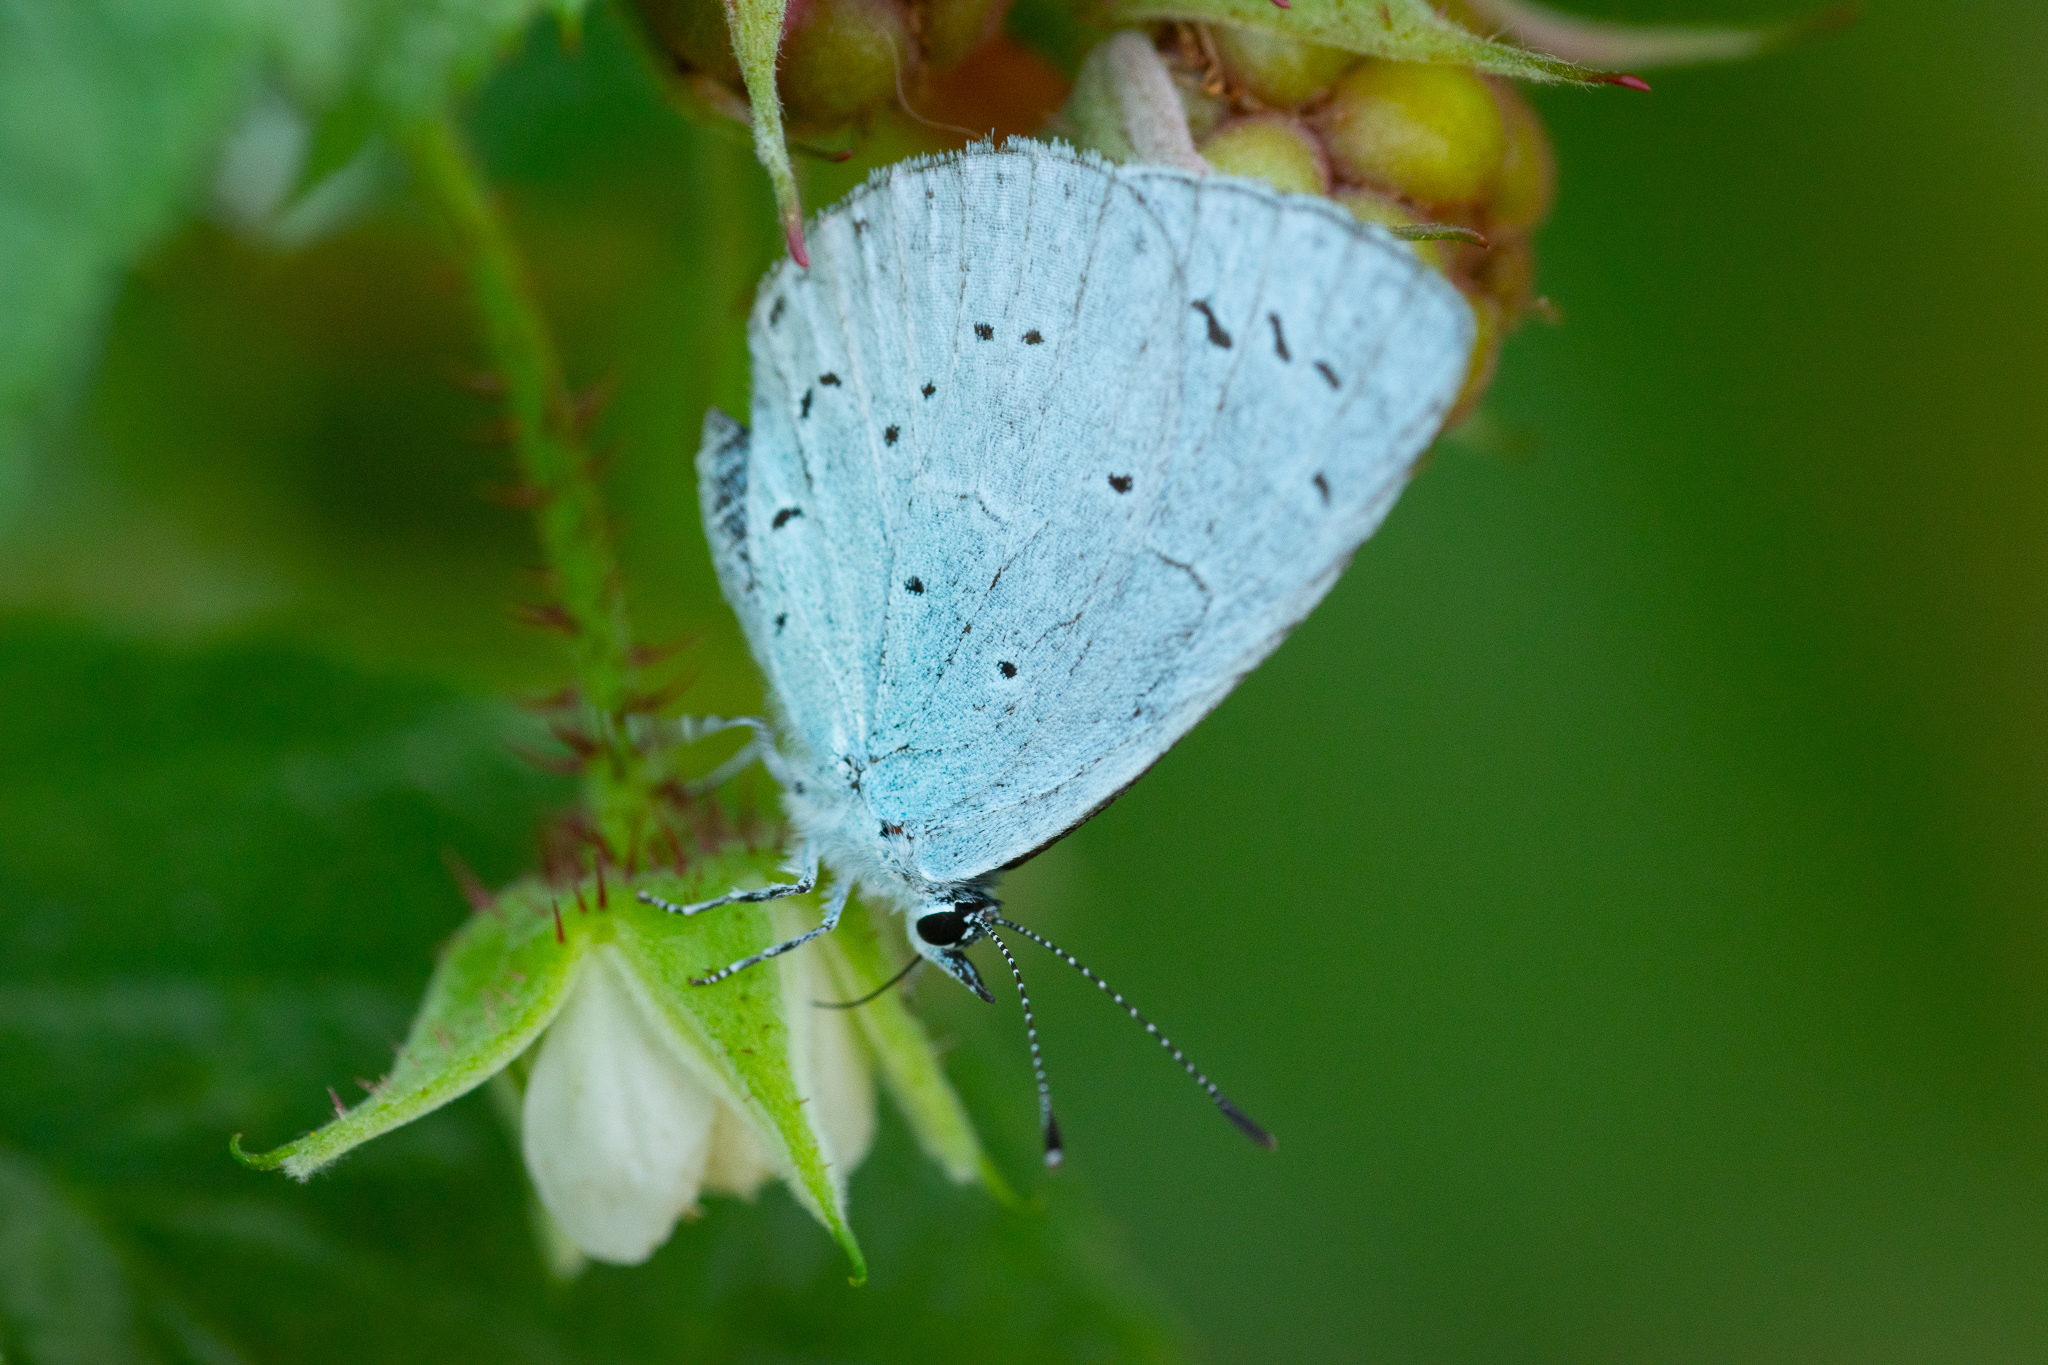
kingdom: Animalia
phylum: Arthropoda
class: Insecta
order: Lepidoptera
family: Lycaenidae
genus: Celastrina
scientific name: Celastrina argiolus
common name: Holly blue
